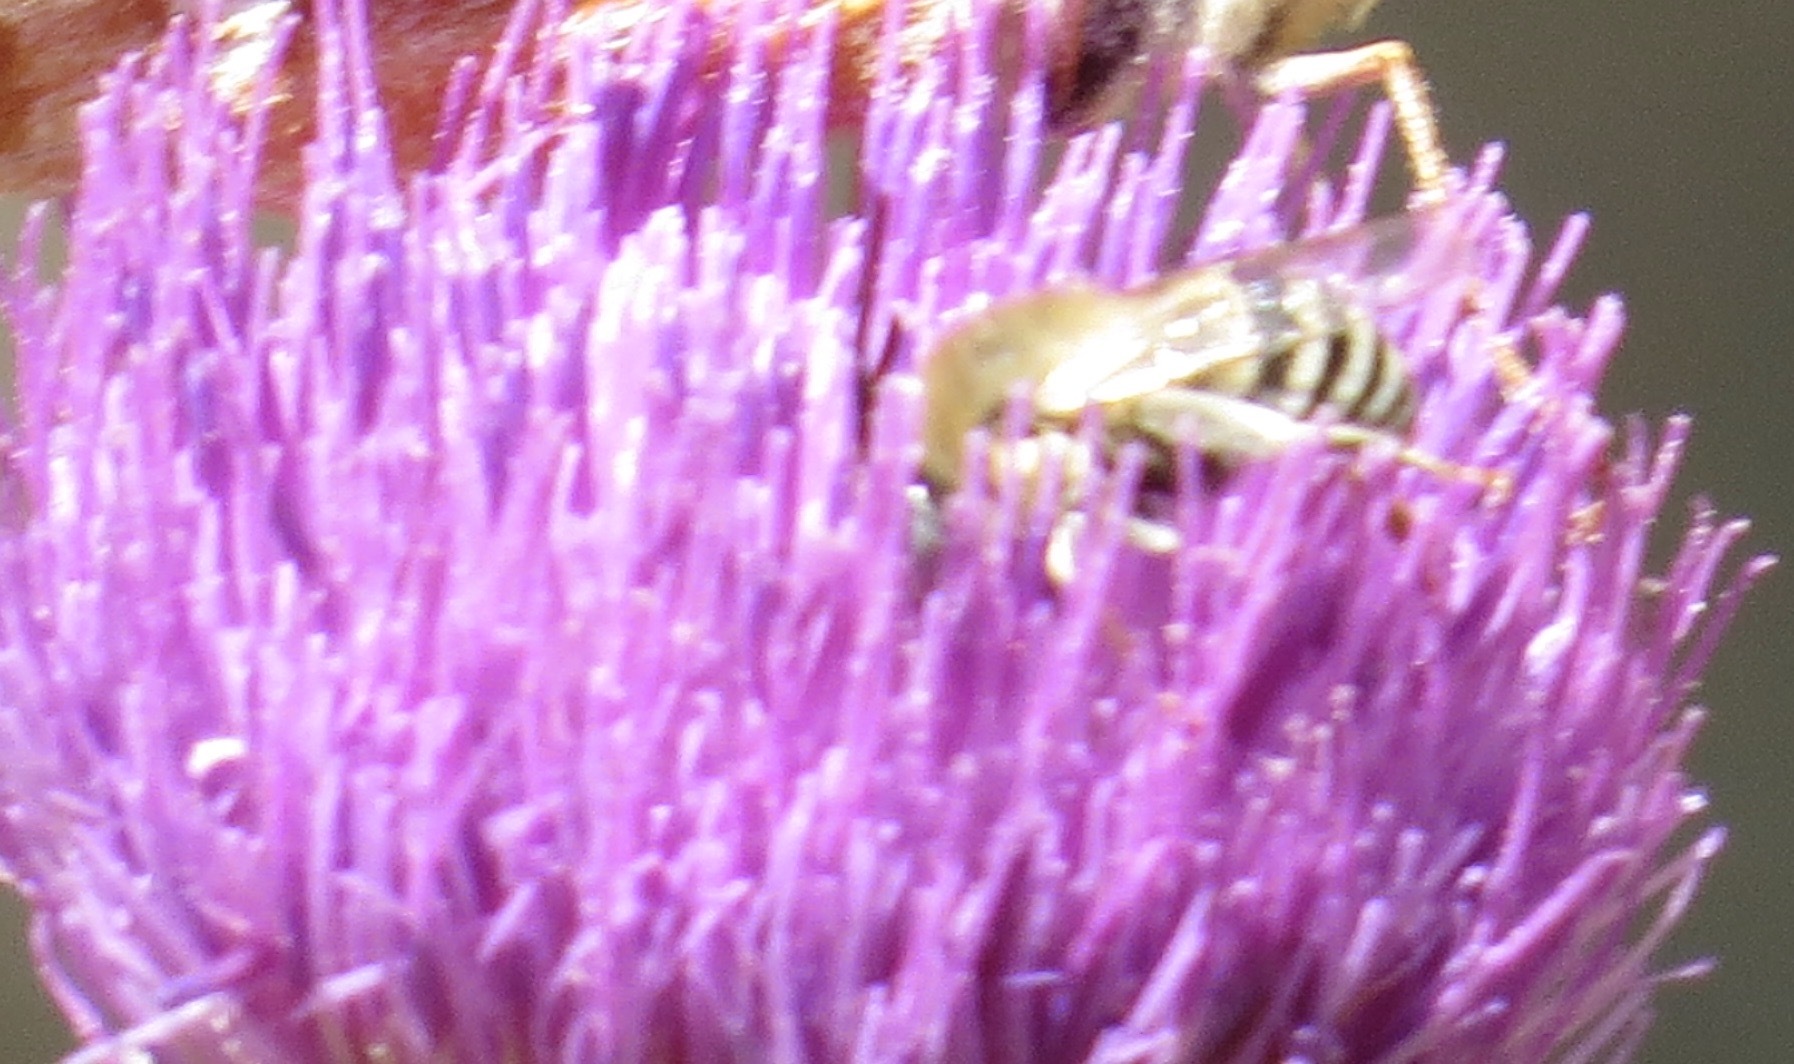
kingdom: Animalia
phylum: Arthropoda
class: Insecta
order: Hymenoptera
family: Apidae
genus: Anthophora
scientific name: Anthophora urbana
